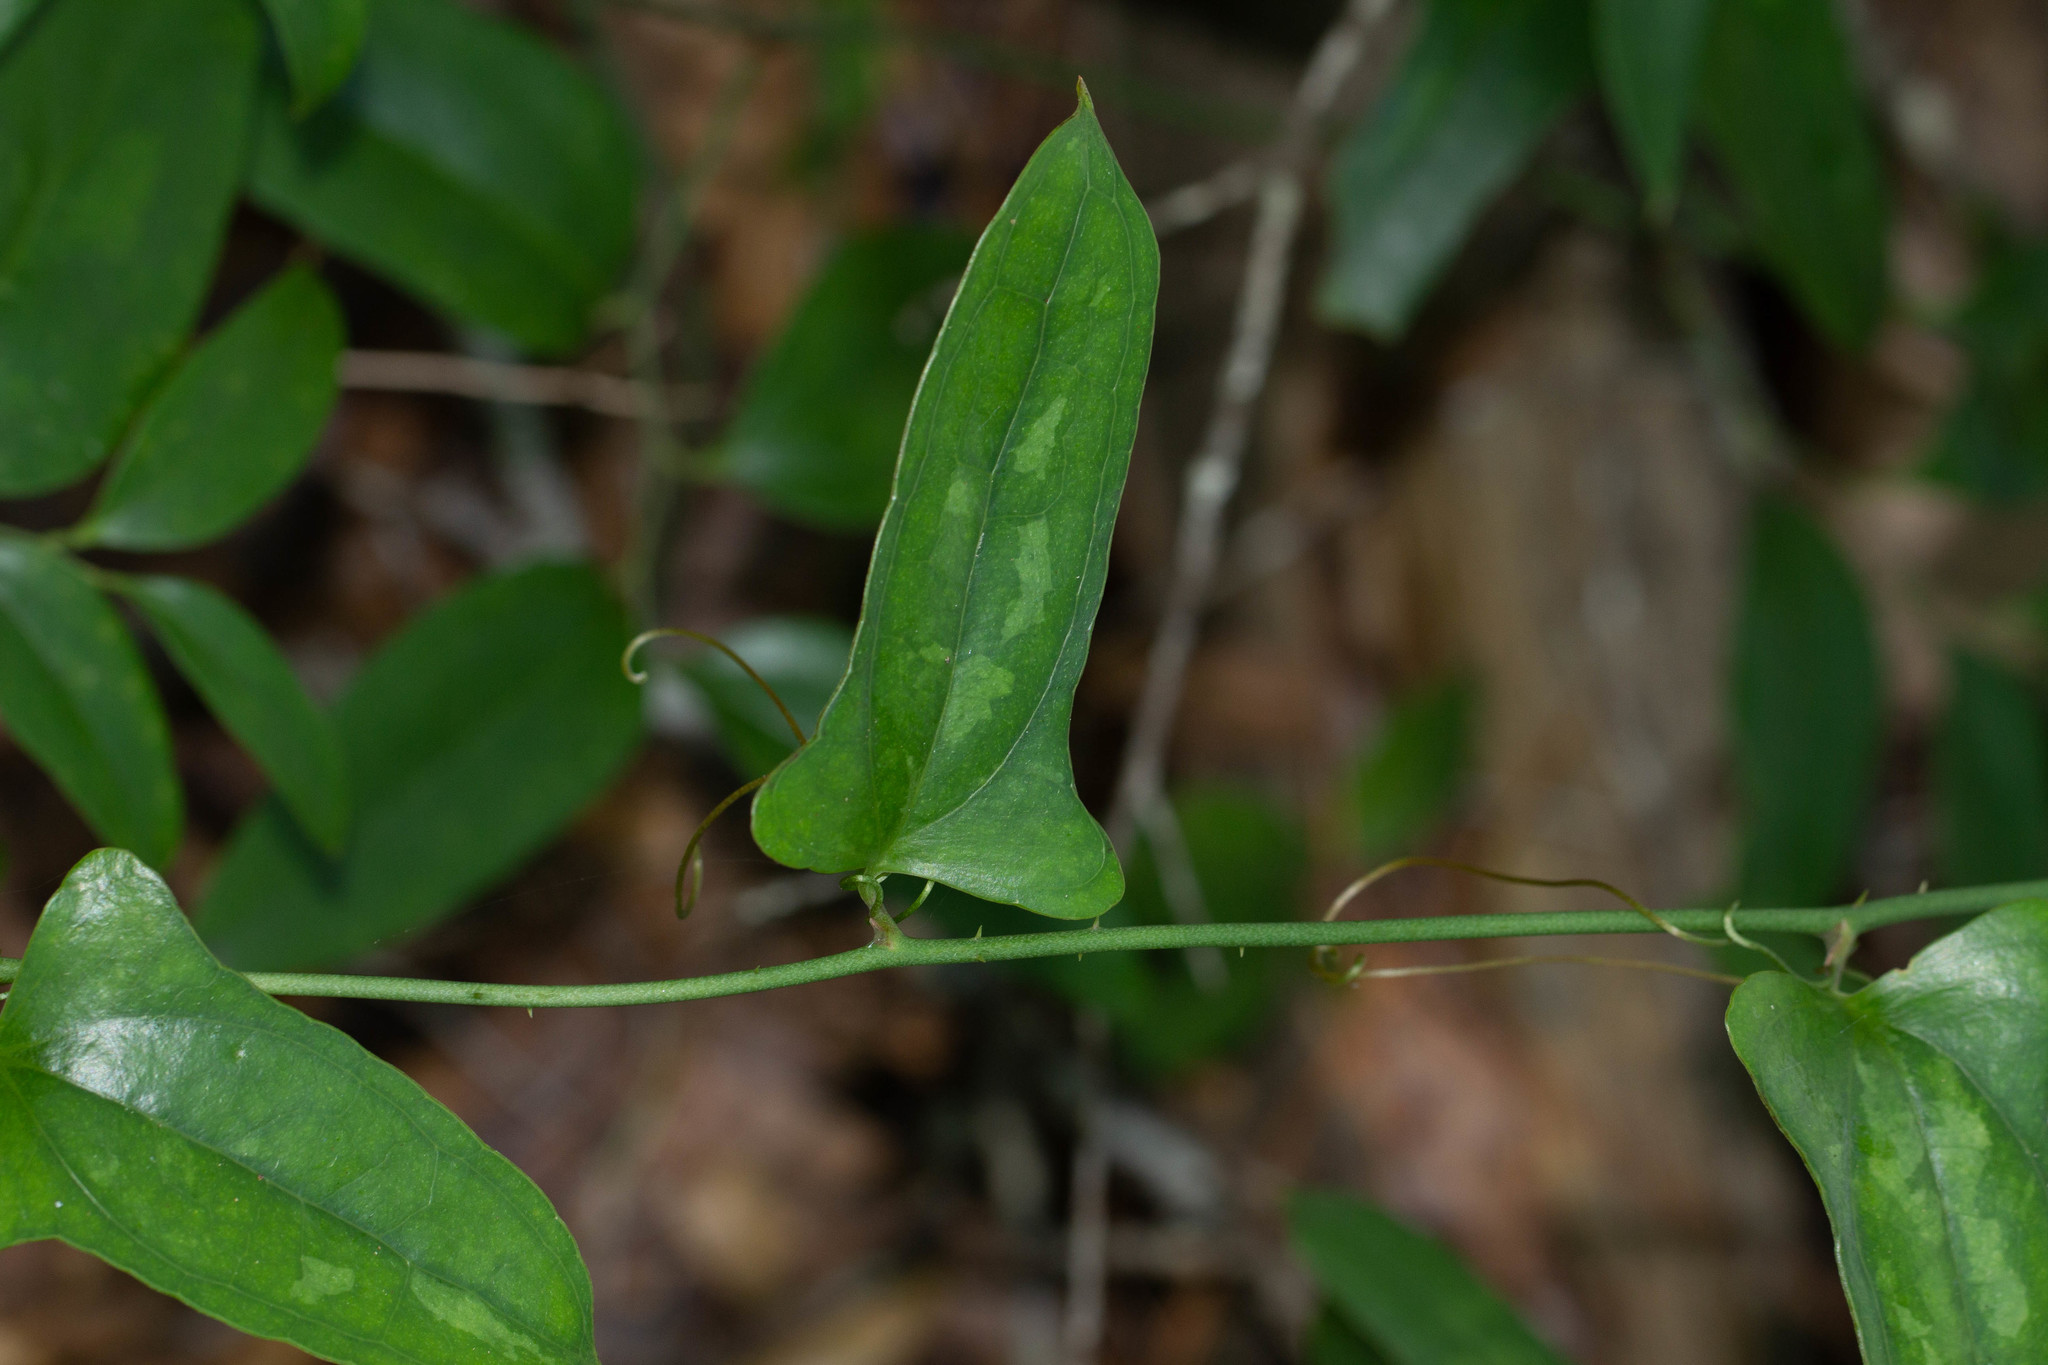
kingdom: Plantae
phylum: Tracheophyta
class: Liliopsida
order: Liliales
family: Smilacaceae
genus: Smilax
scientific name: Smilax auriculata
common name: Wild bamboo
